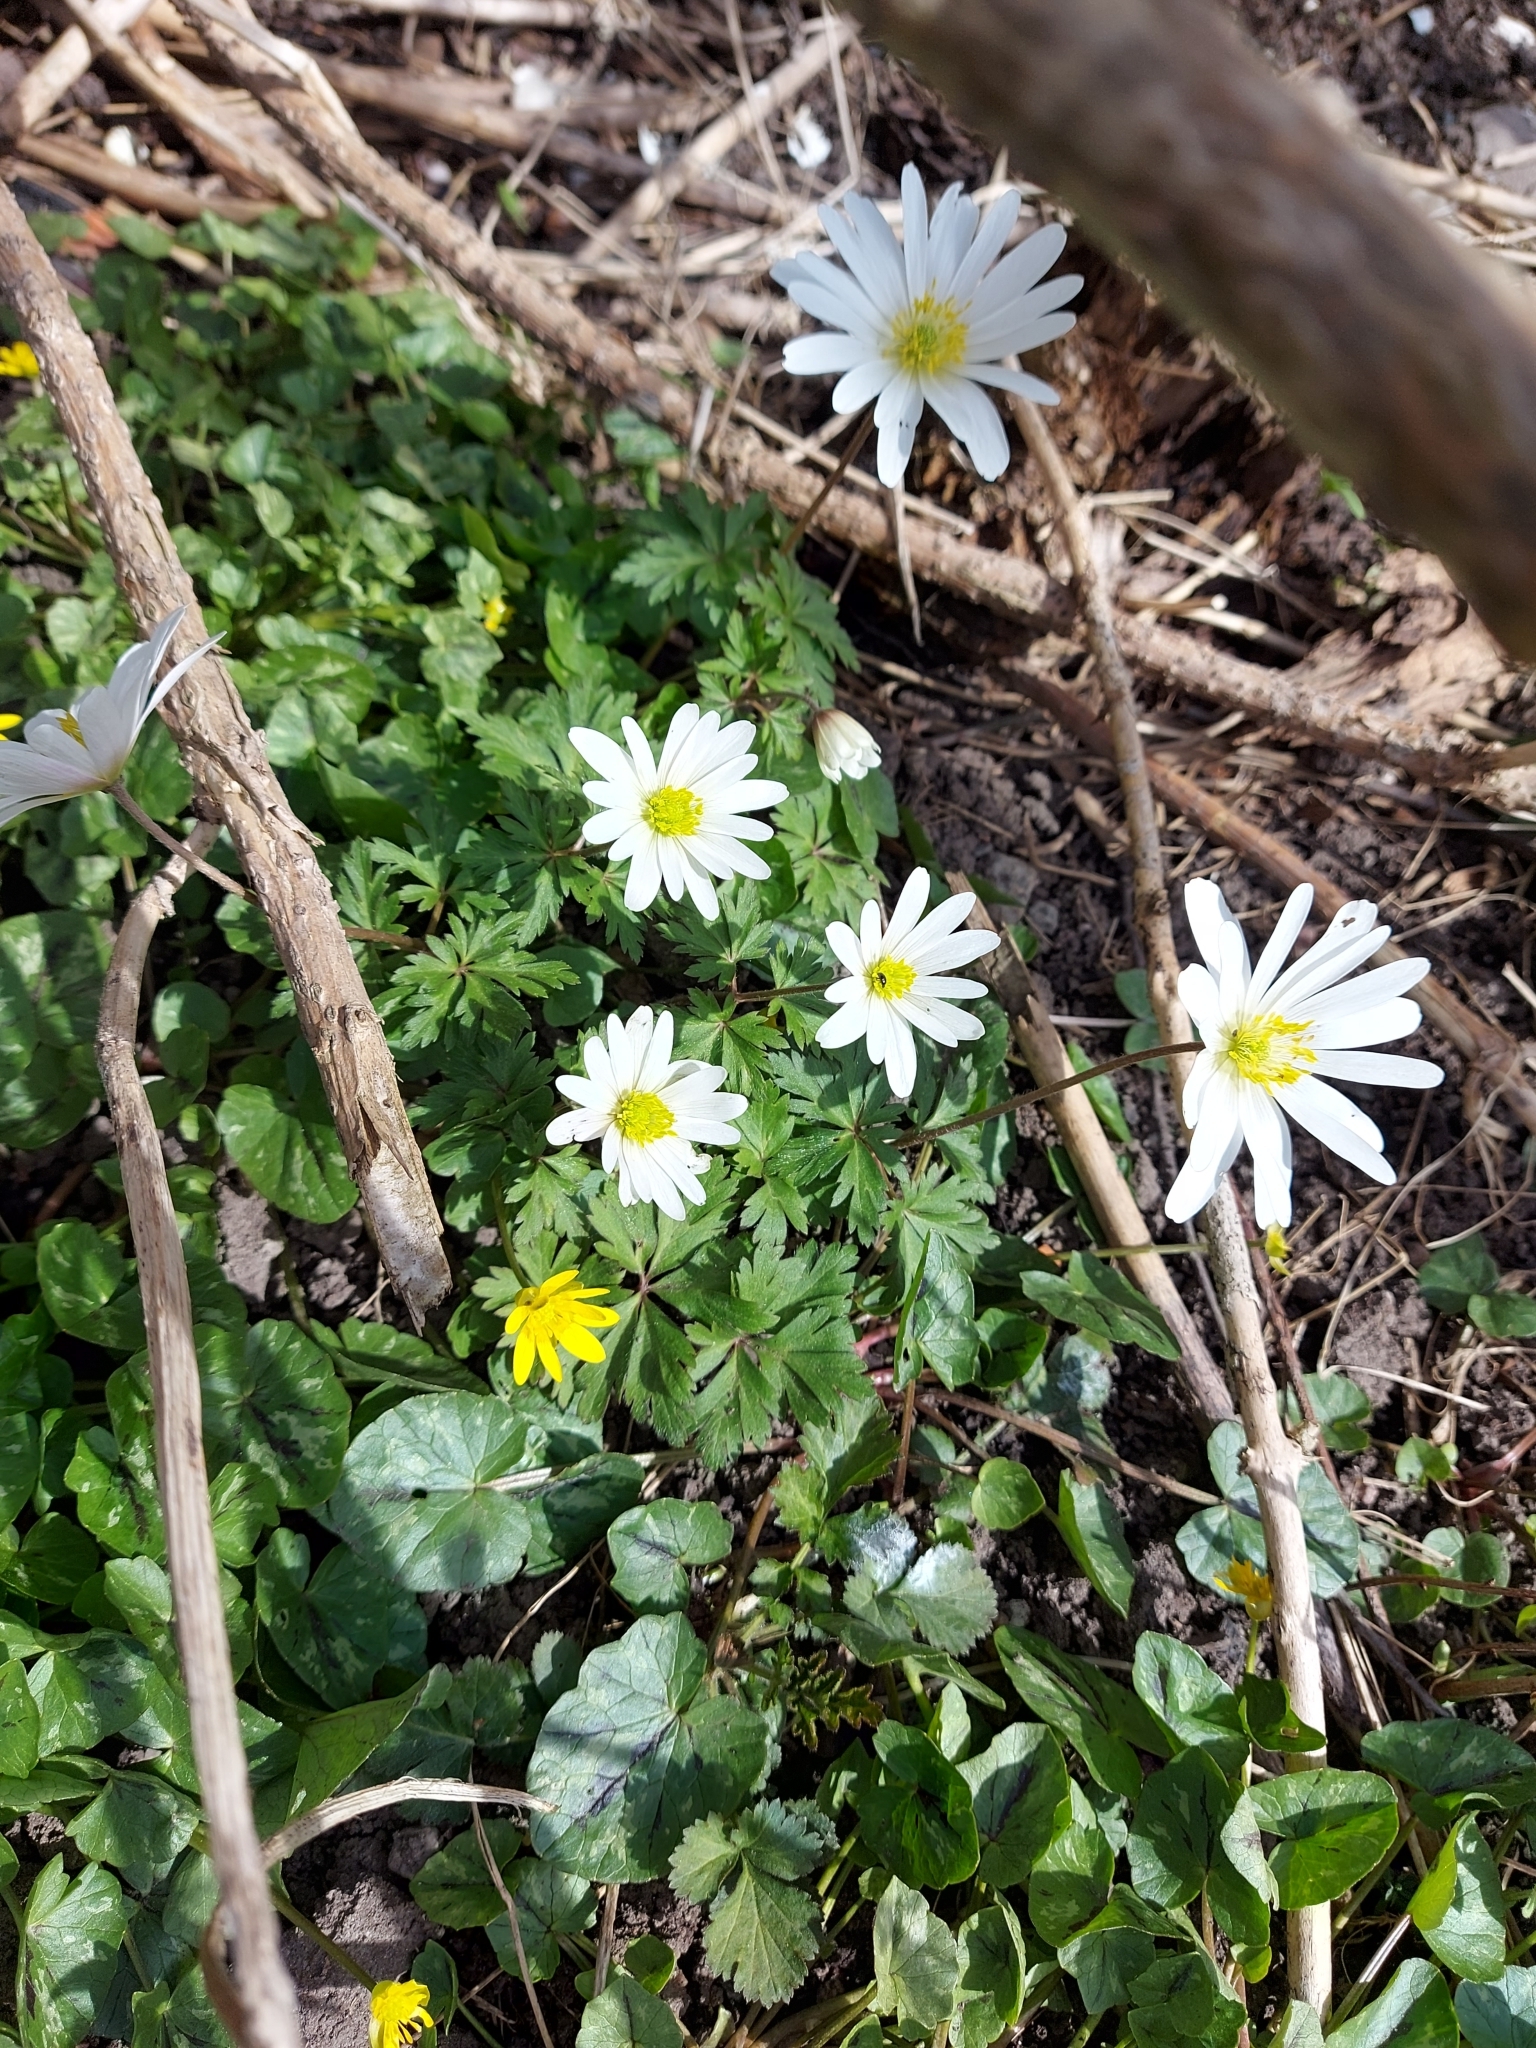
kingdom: Plantae
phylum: Tracheophyta
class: Magnoliopsida
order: Ranunculales
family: Ranunculaceae
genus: Anemone
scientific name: Anemone blanda
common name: Balkan anemone
